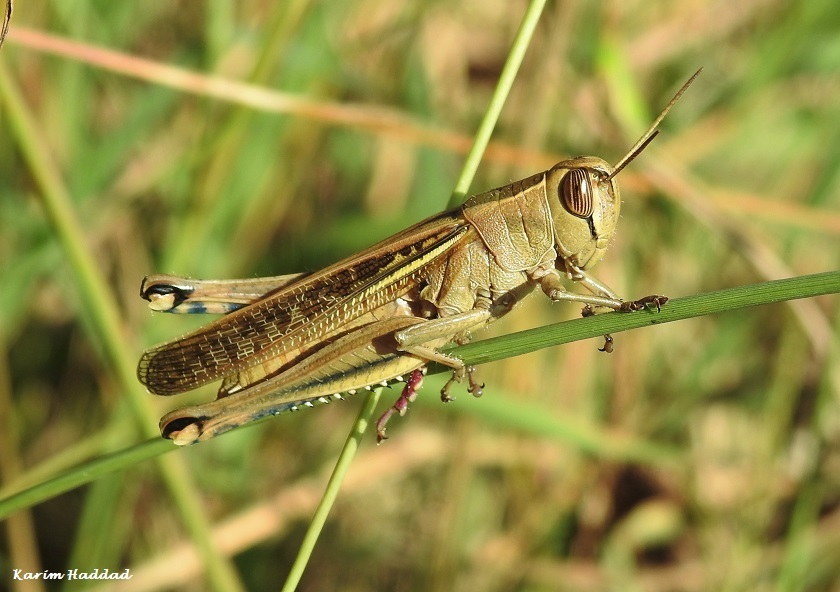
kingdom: Animalia
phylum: Arthropoda
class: Insecta
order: Orthoptera
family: Acrididae
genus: Eyprepocnemis
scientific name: Eyprepocnemis plorans
